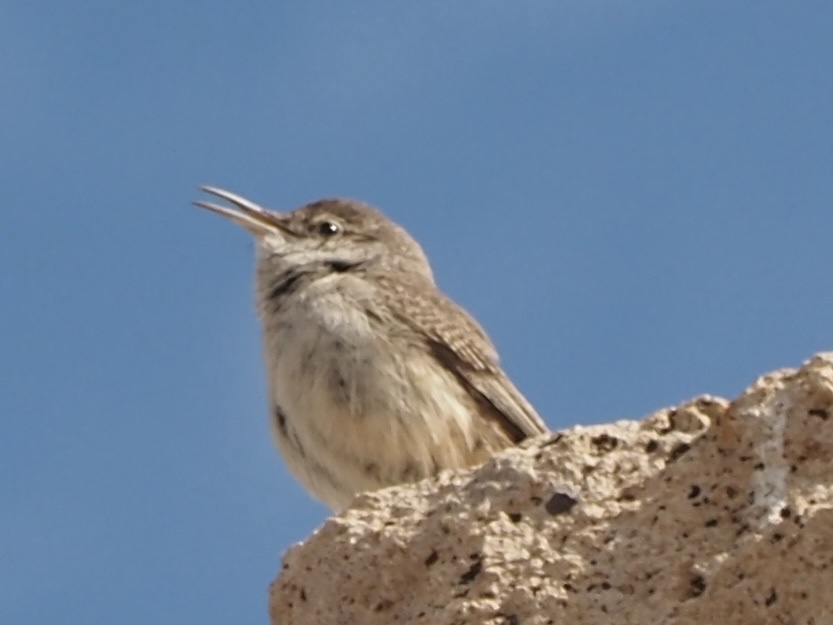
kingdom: Animalia
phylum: Chordata
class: Aves
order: Passeriformes
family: Troglodytidae
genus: Salpinctes
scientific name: Salpinctes obsoletus
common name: Rock wren
